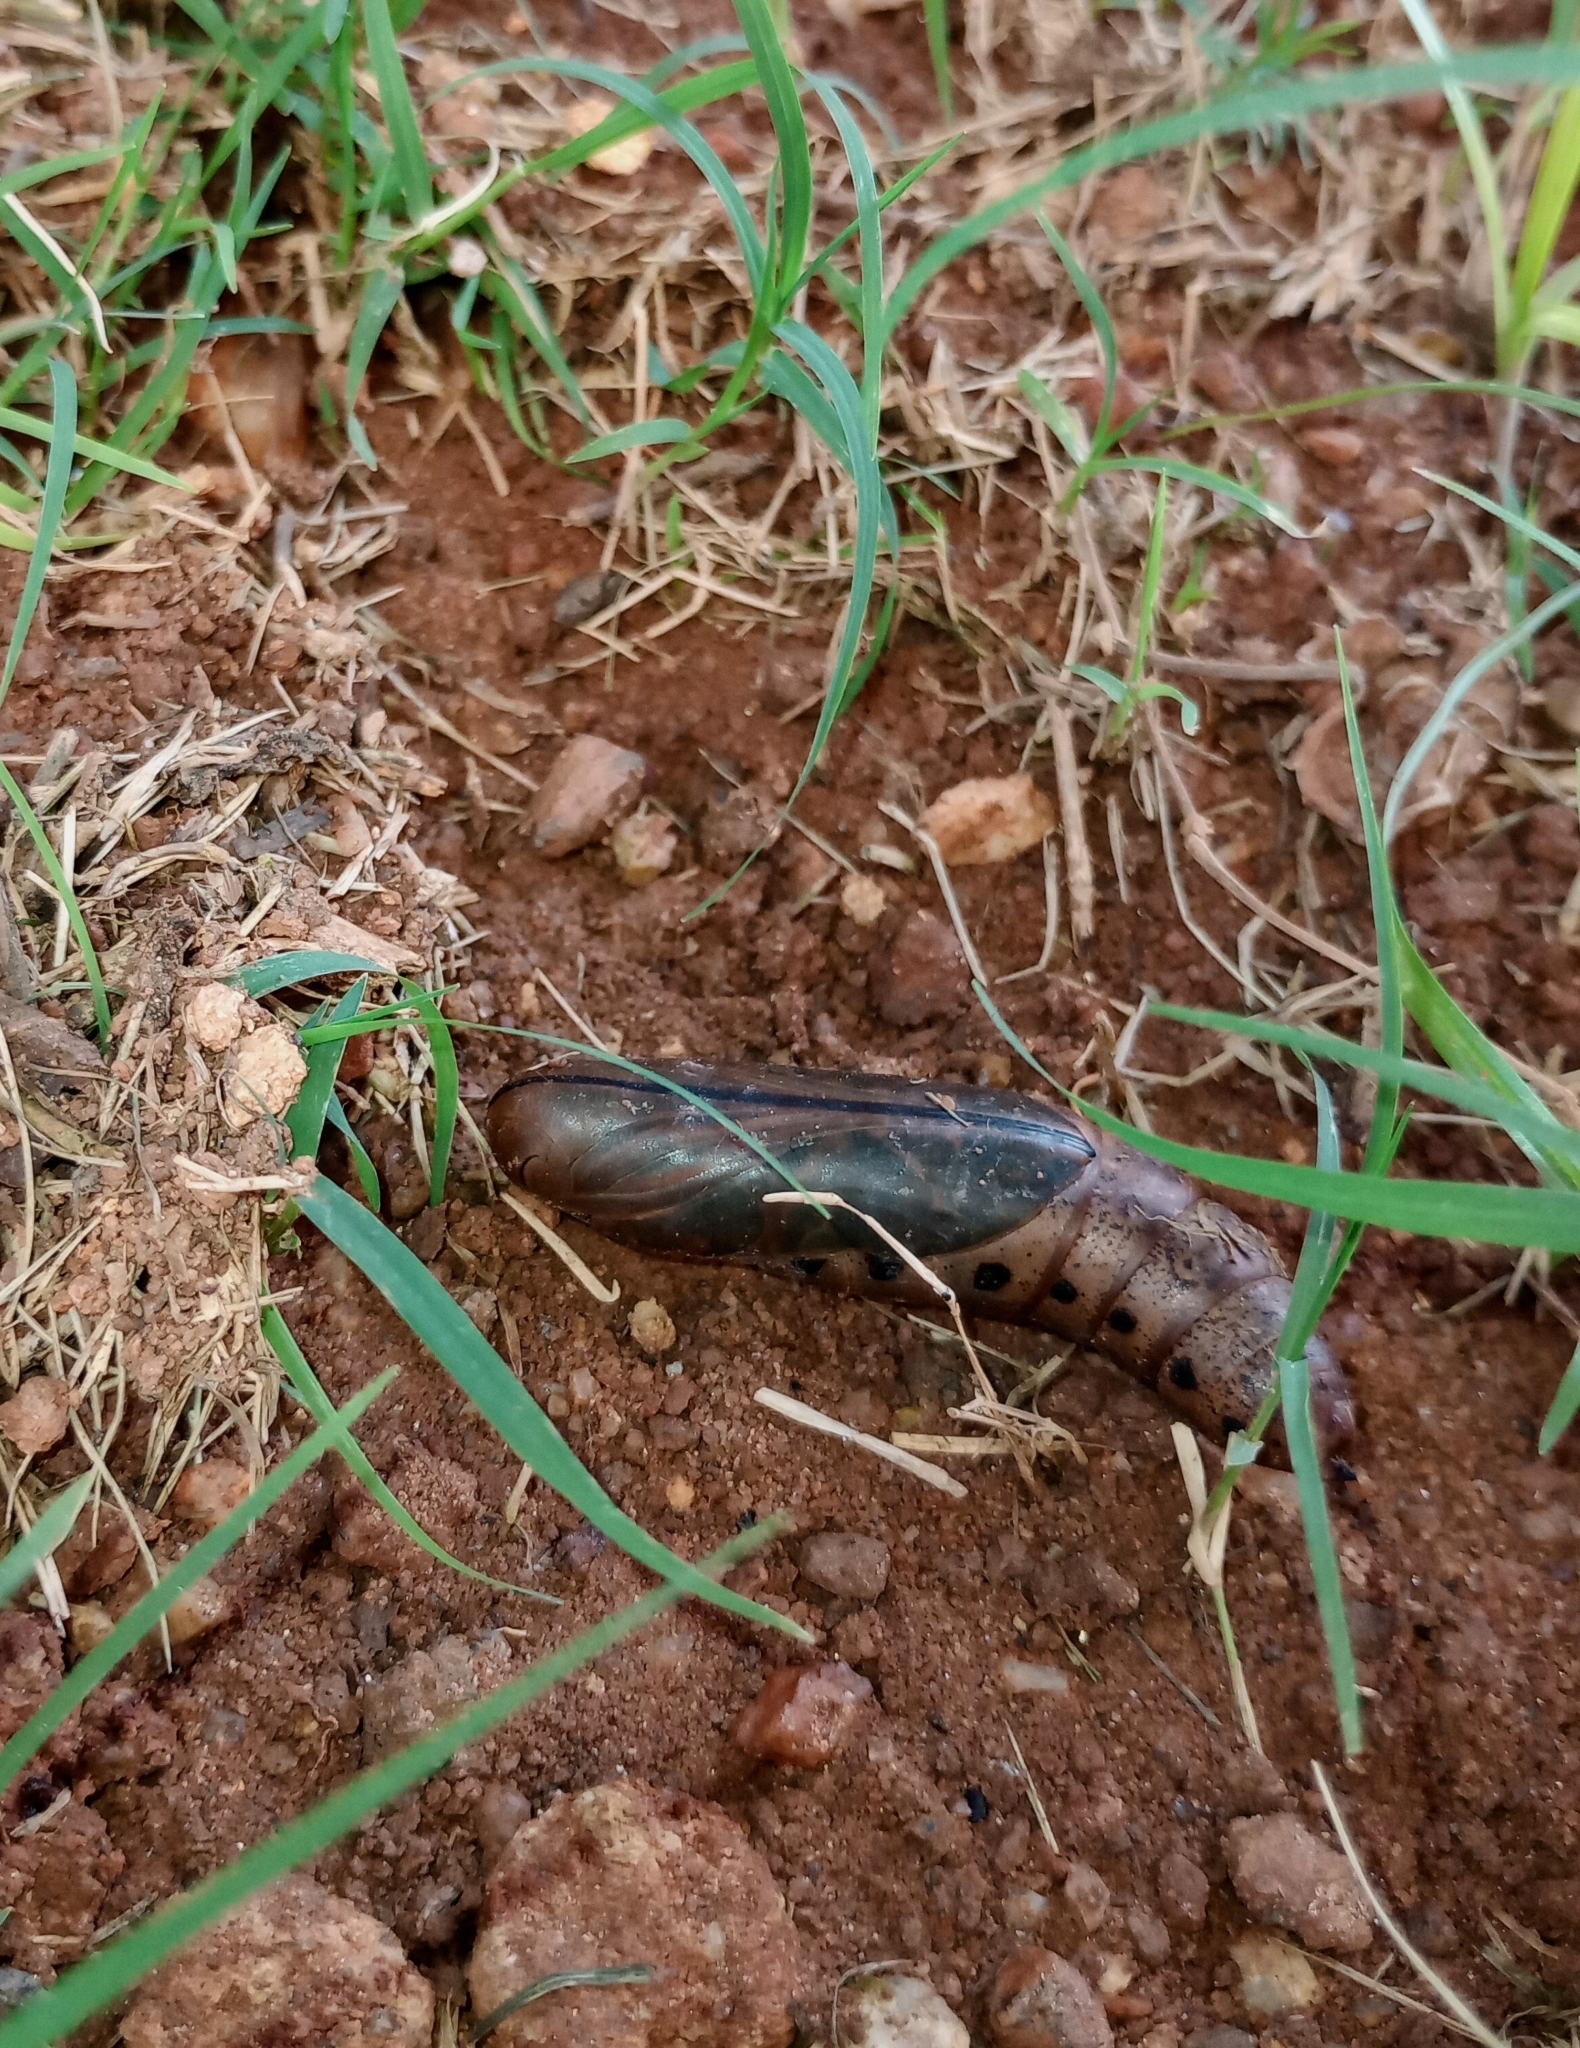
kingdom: Animalia
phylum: Arthropoda
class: Insecta
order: Lepidoptera
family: Sphingidae
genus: Daphnis
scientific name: Daphnis nerii
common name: Oleander hawk-moth
